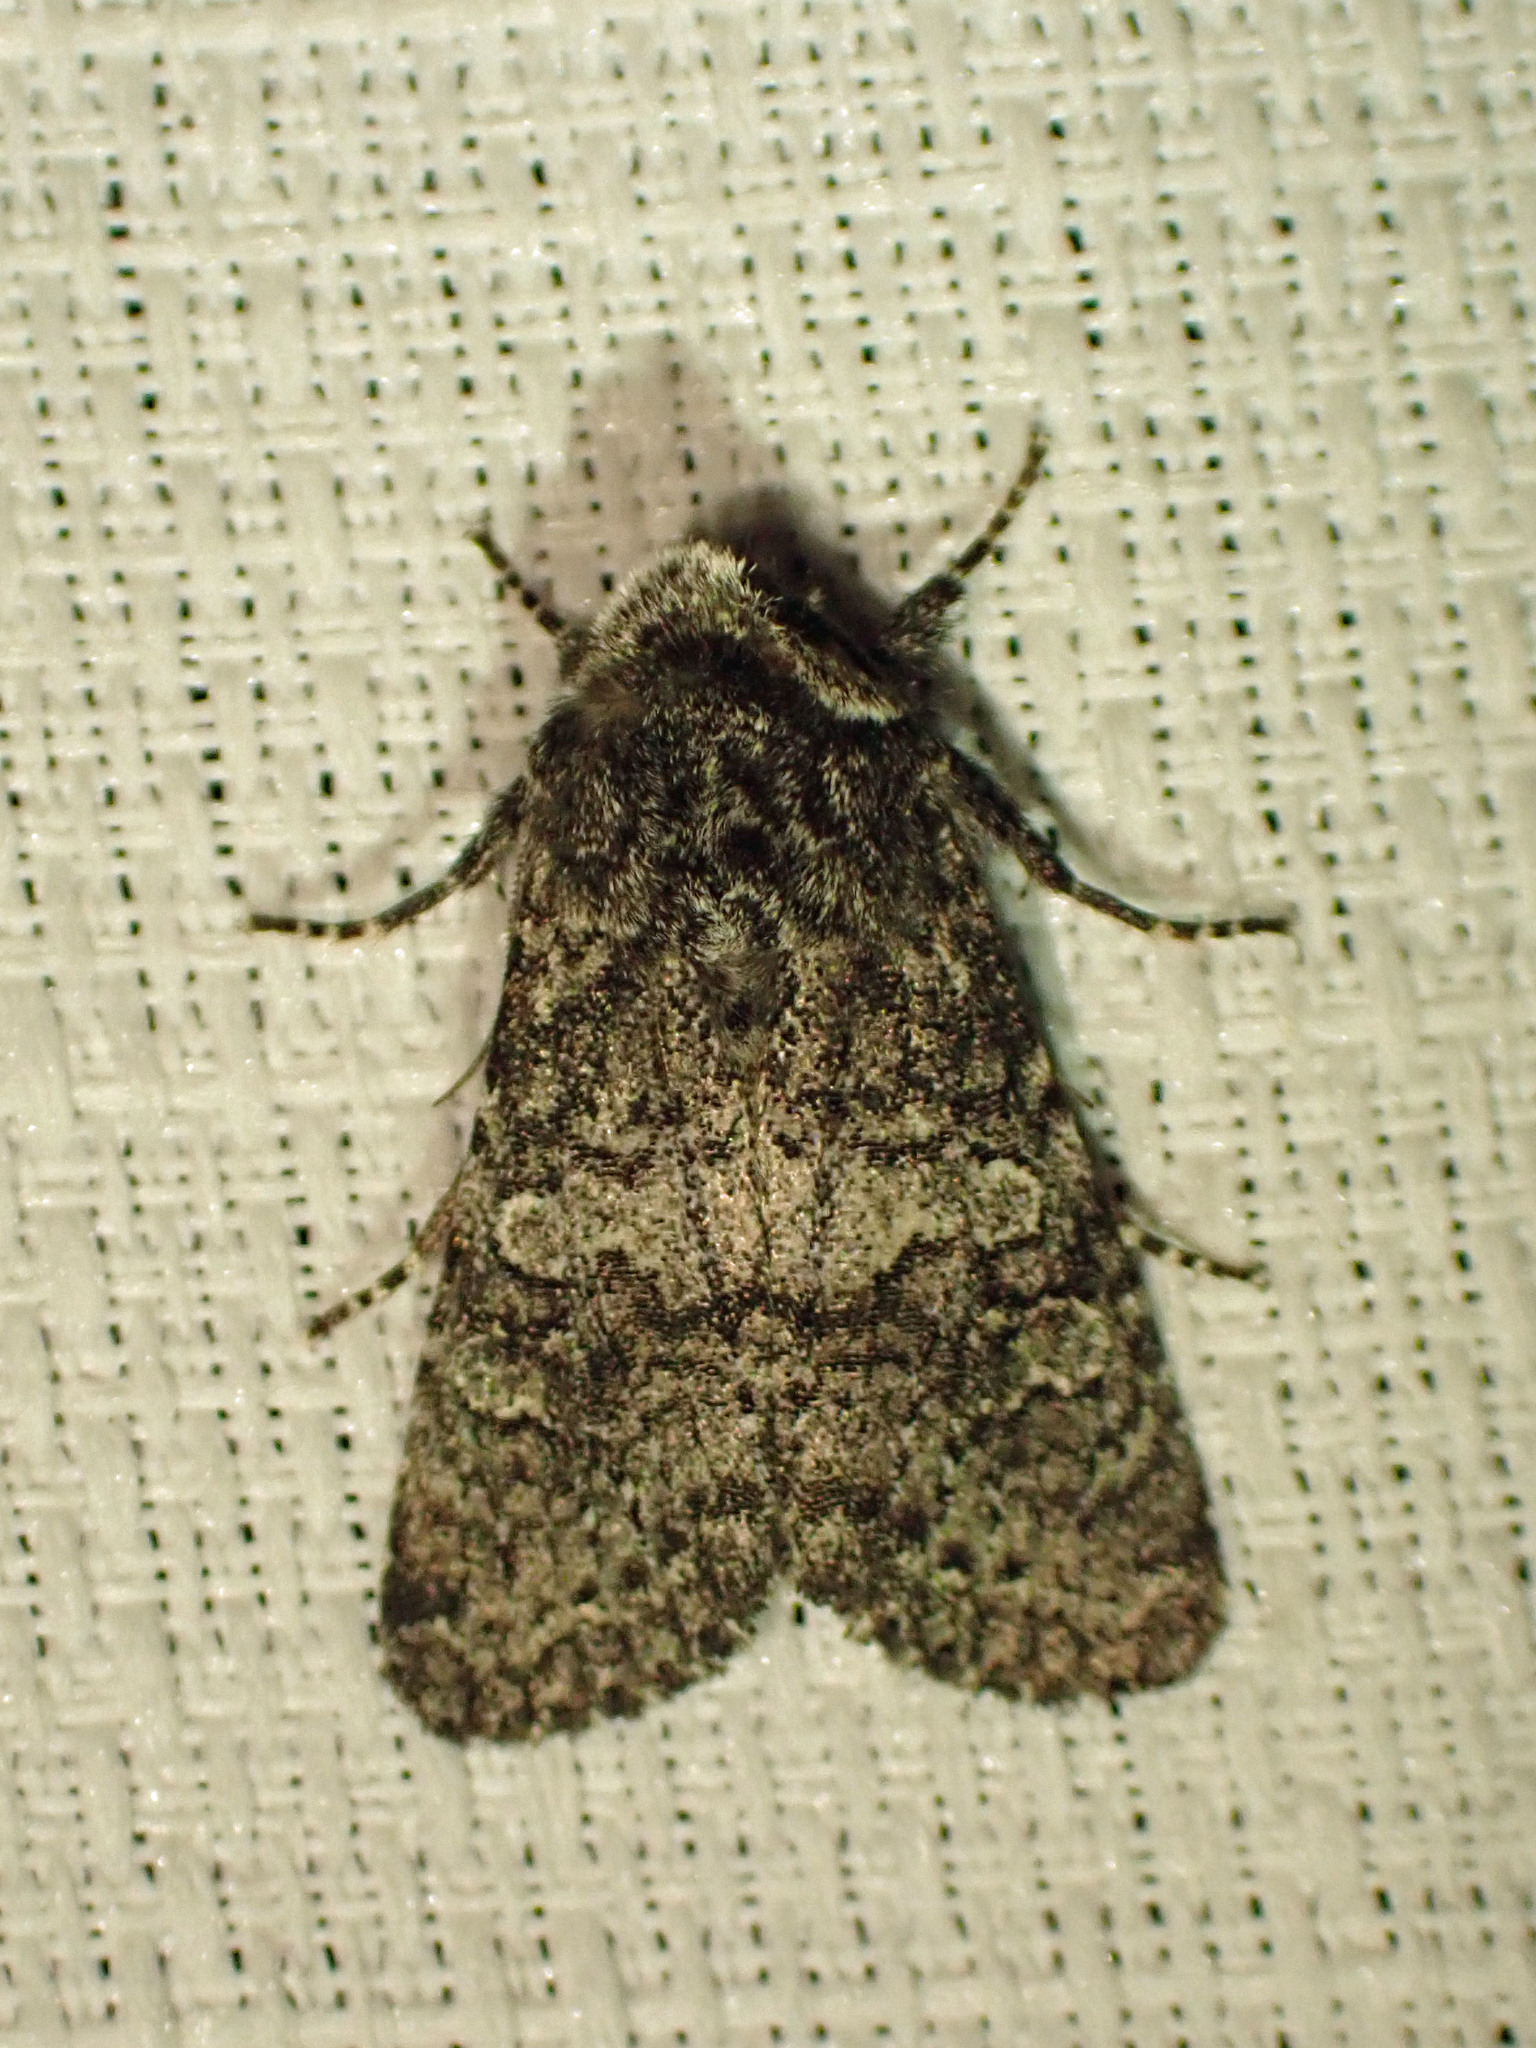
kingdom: Animalia
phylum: Arthropoda
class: Insecta
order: Lepidoptera
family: Noctuidae
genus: Egira
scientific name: Egira dolosa
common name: Lined black aspen cat.
